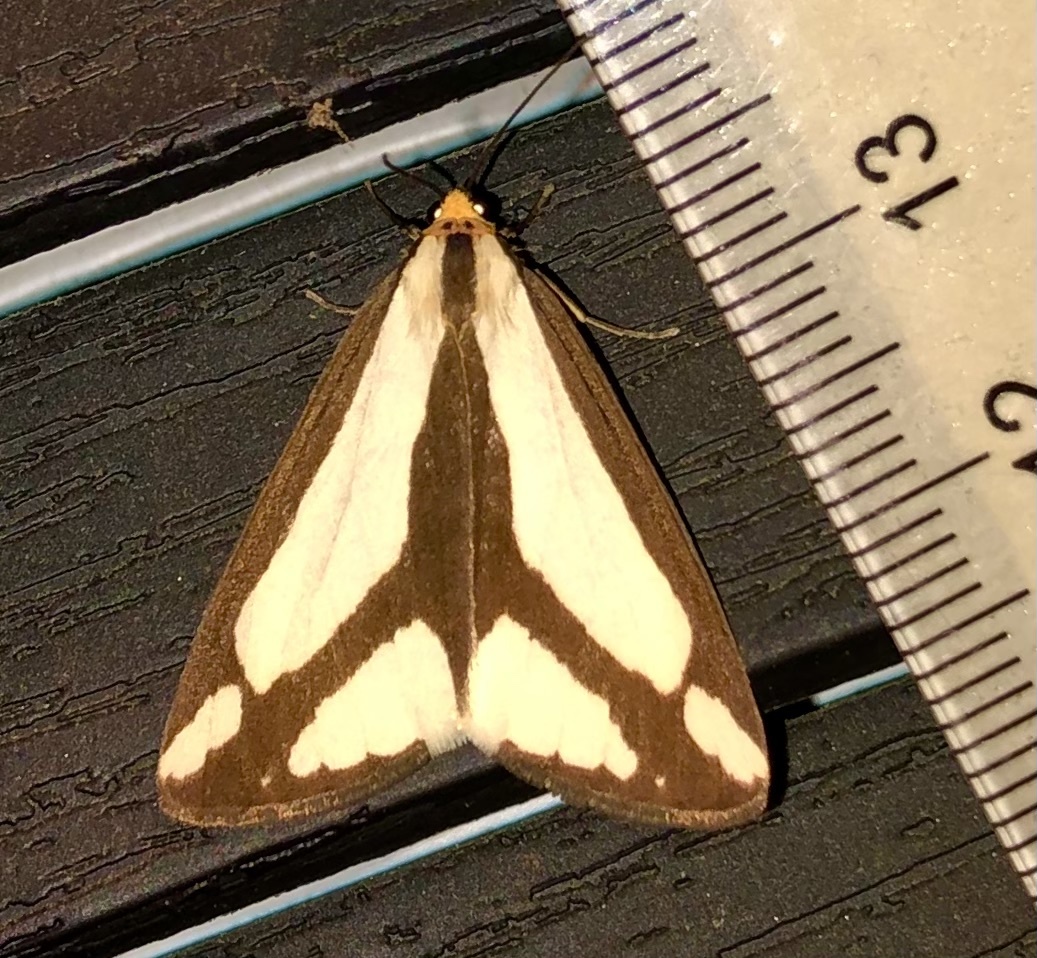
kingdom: Animalia
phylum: Arthropoda
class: Insecta
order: Lepidoptera
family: Erebidae
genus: Haploa
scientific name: Haploa lecontei
